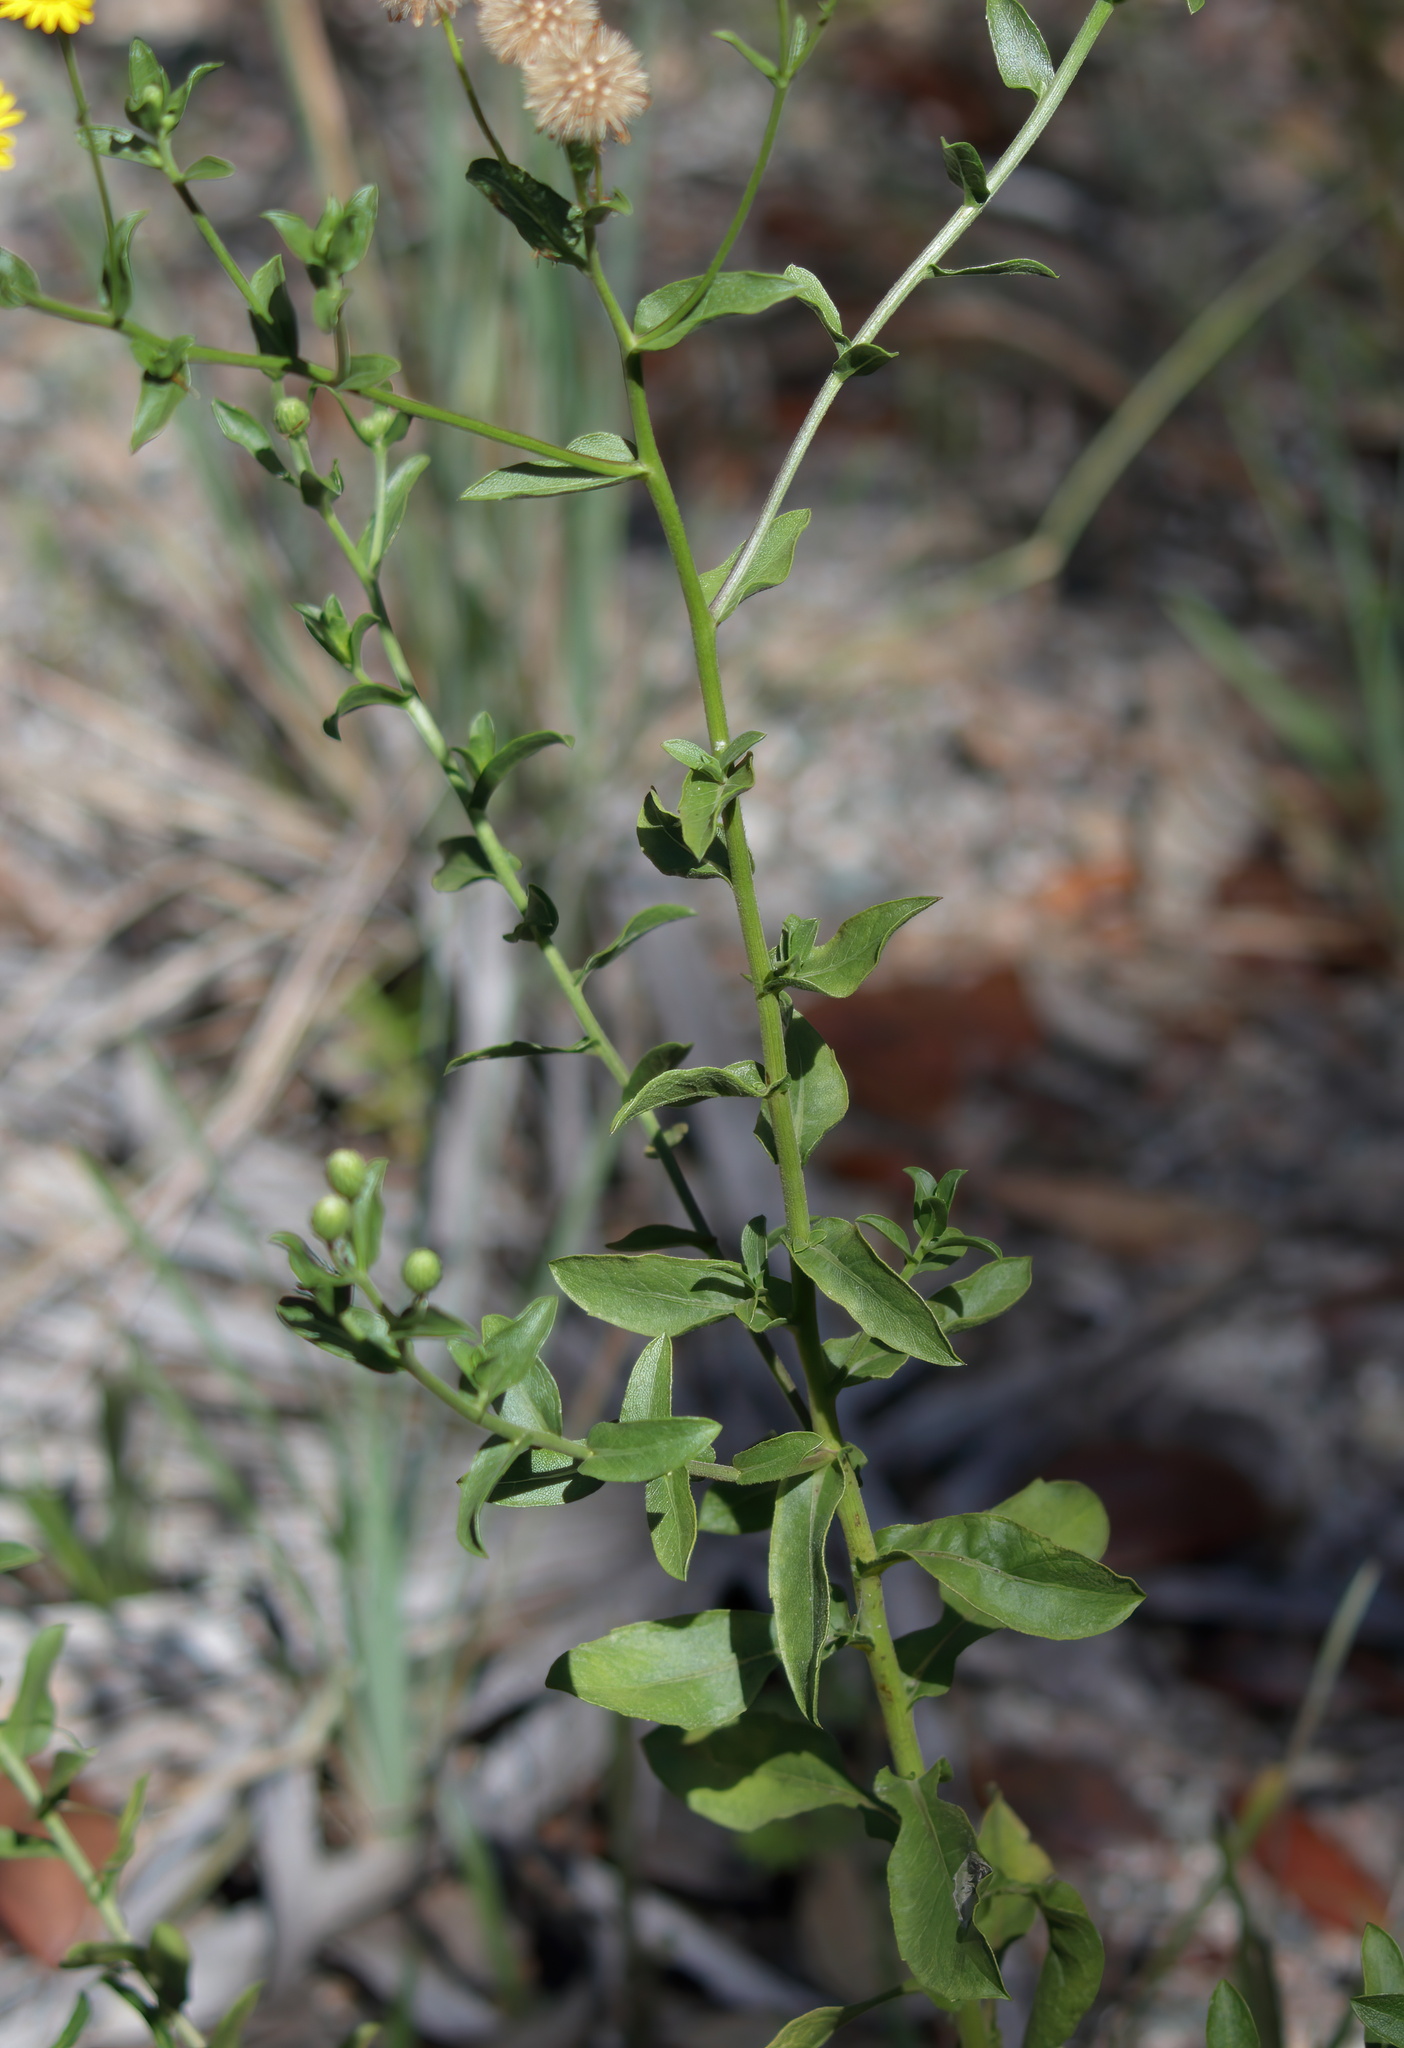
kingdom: Plantae
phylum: Tracheophyta
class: Magnoliopsida
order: Asterales
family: Asteraceae
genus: Heterotheca
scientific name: Heterotheca subaxillaris
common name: Camphorweed
